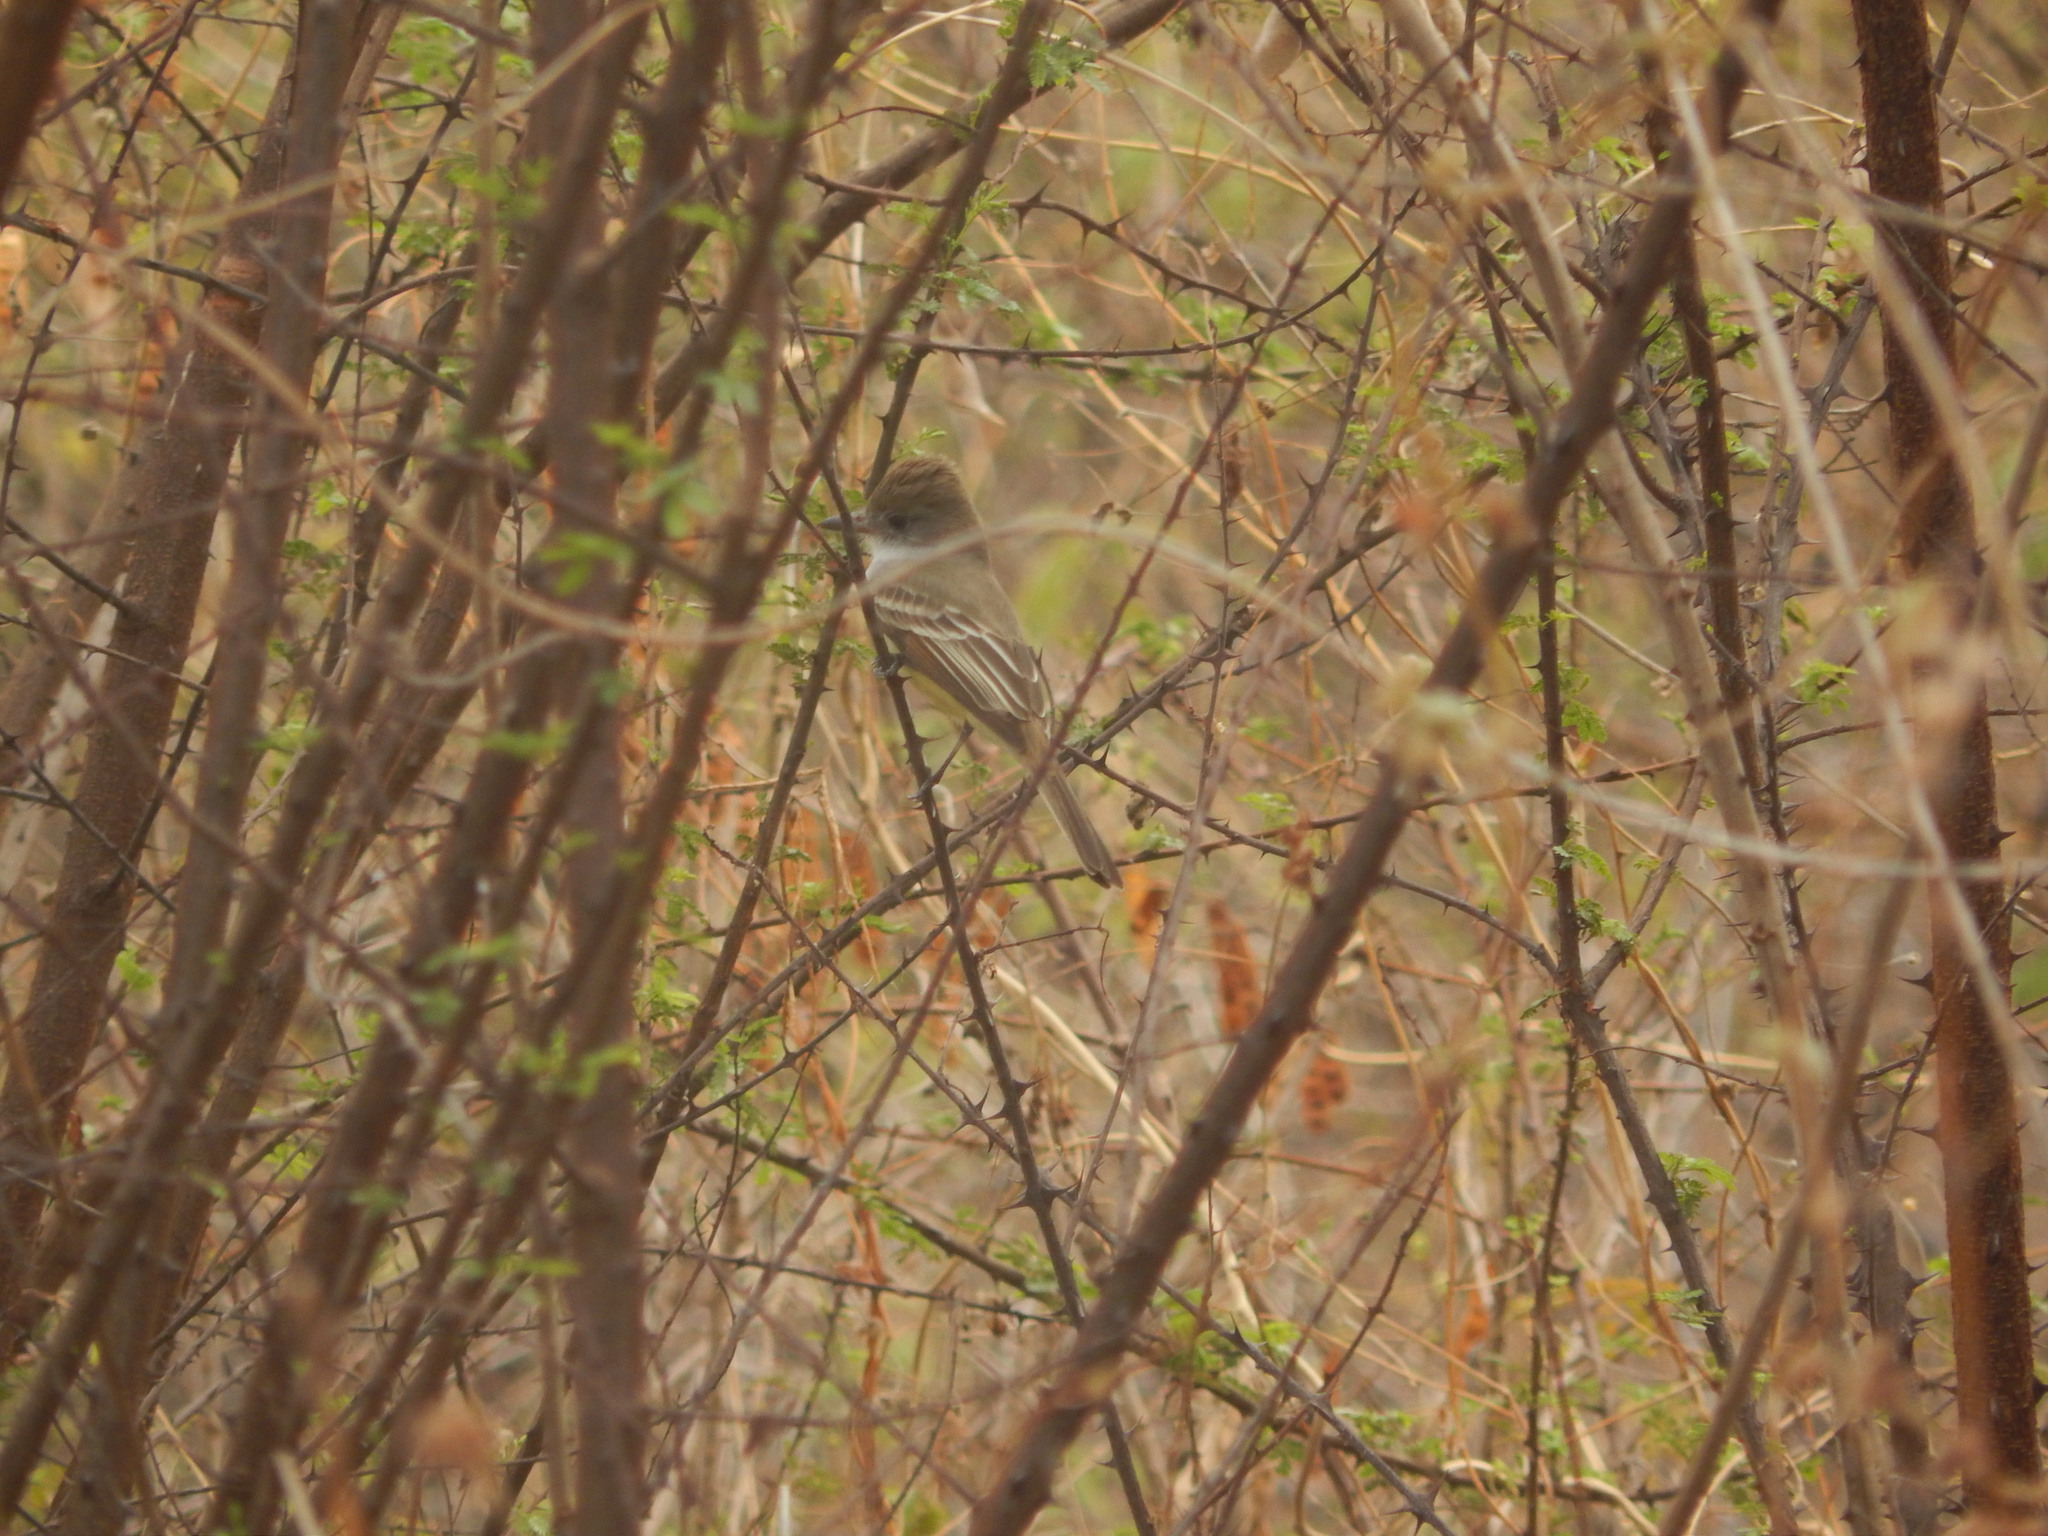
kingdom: Animalia
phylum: Chordata
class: Aves
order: Passeriformes
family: Tyrannidae
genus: Myiarchus
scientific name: Myiarchus tyrannulus
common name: Brown-crested flycatcher
